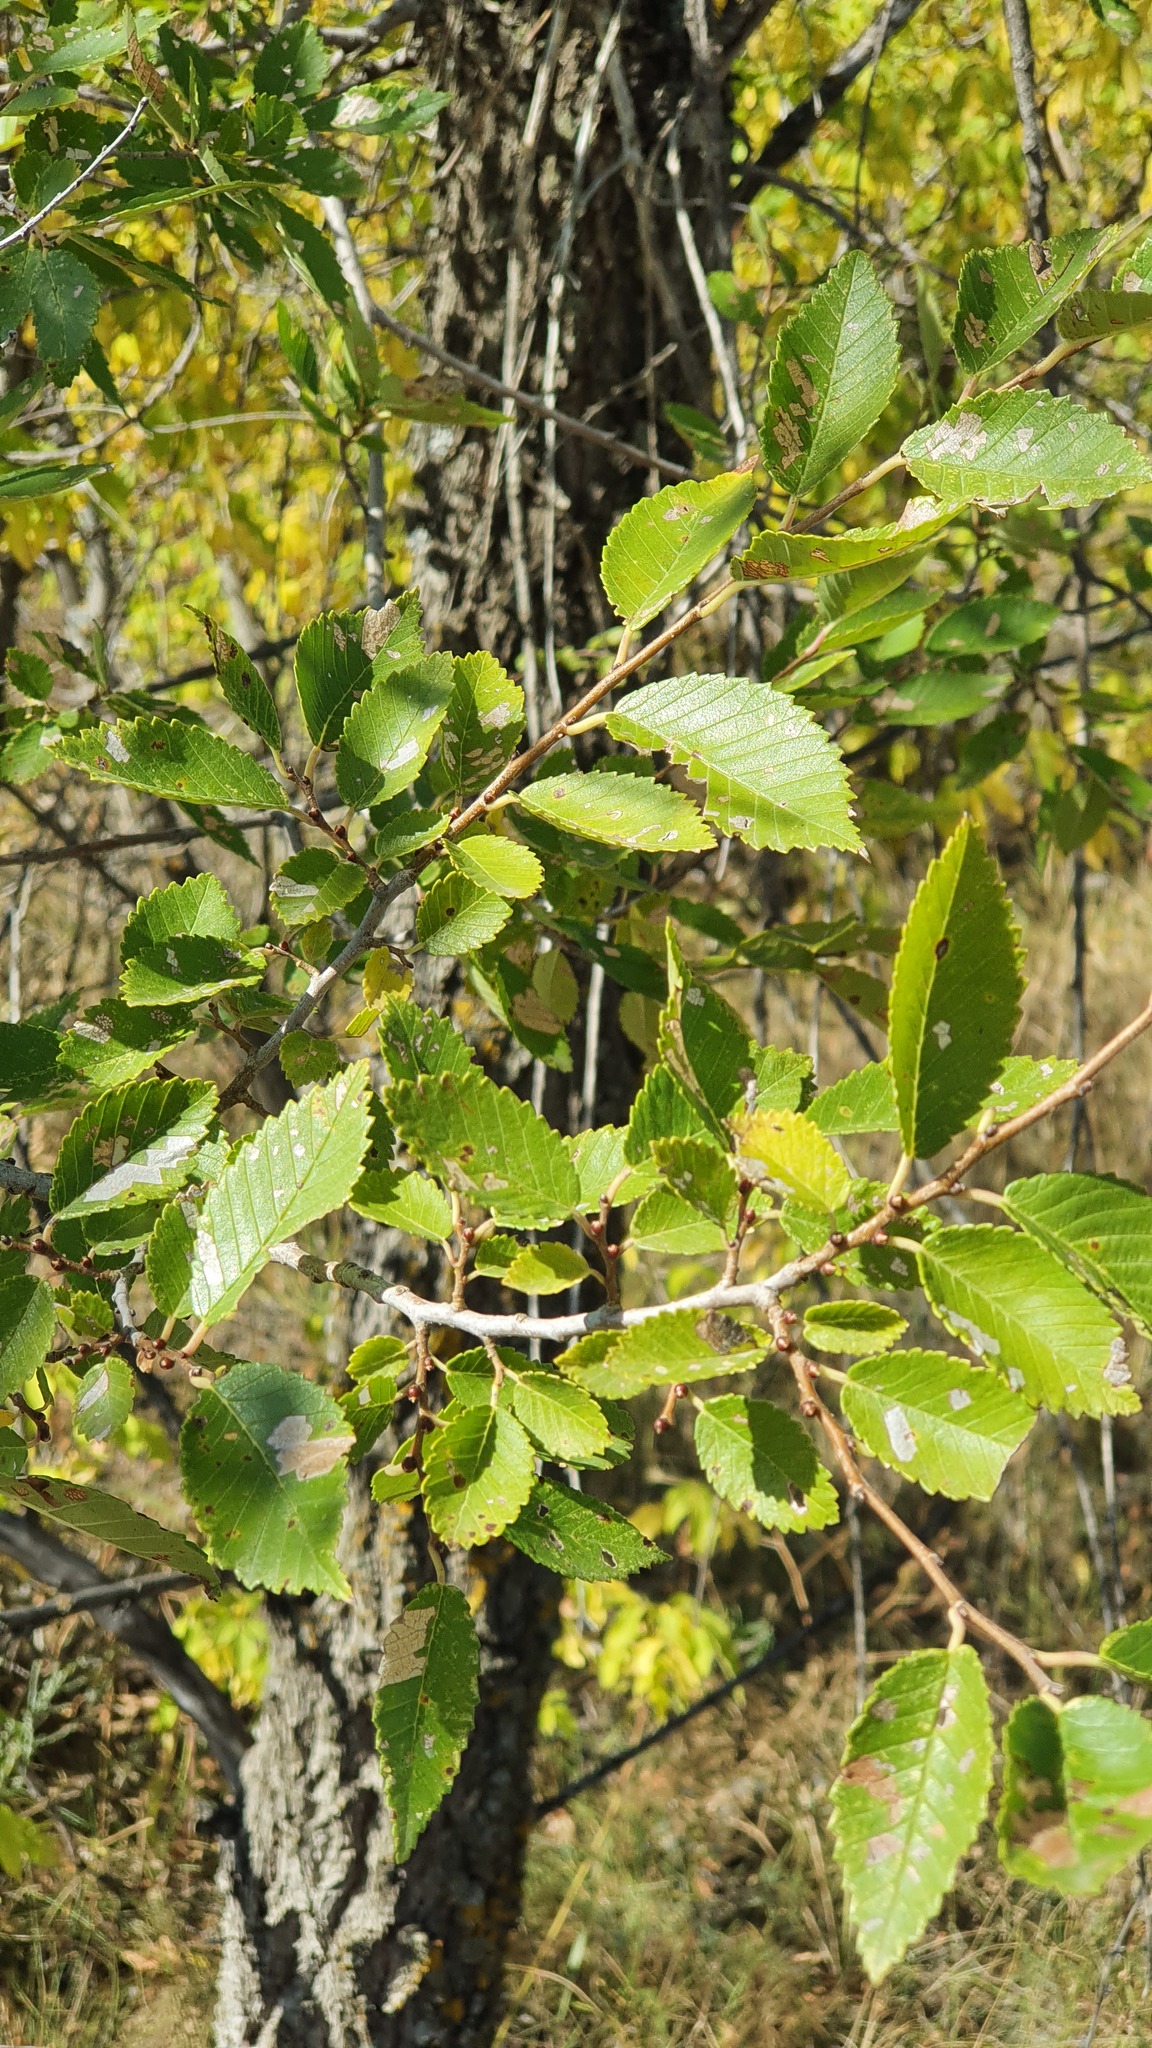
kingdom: Plantae
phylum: Tracheophyta
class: Magnoliopsida
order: Rosales
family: Ulmaceae
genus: Ulmus
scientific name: Ulmus pumila
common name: Siberian elm
